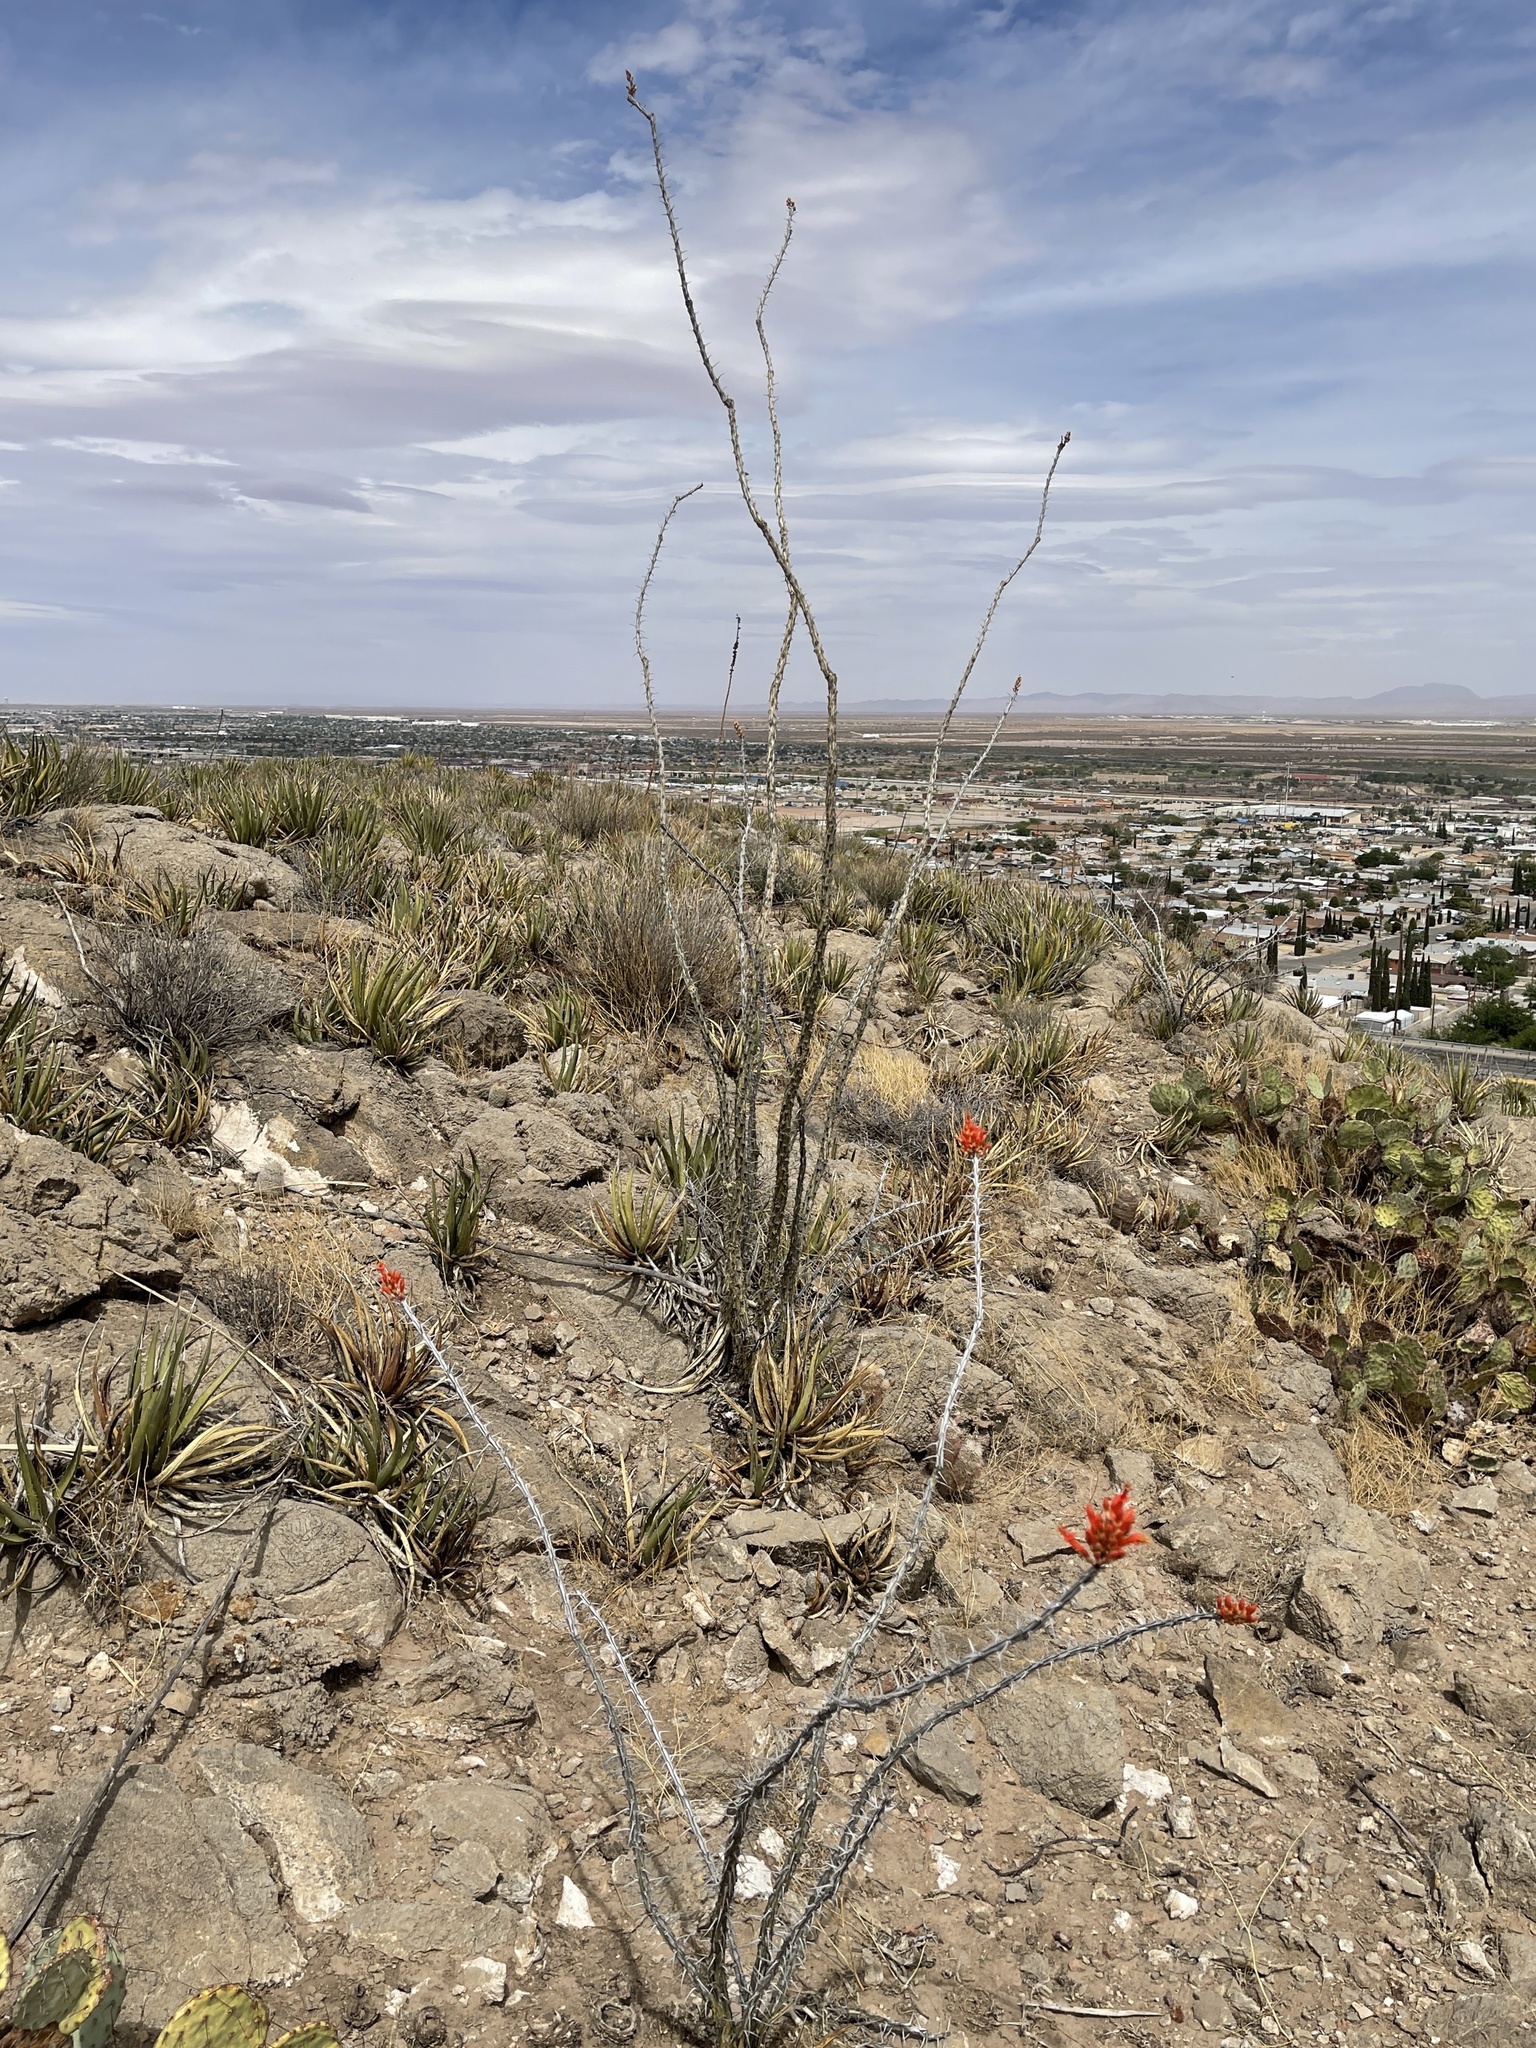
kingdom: Plantae
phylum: Tracheophyta
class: Magnoliopsida
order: Ericales
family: Fouquieriaceae
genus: Fouquieria
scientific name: Fouquieria splendens
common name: Vine-cactus
